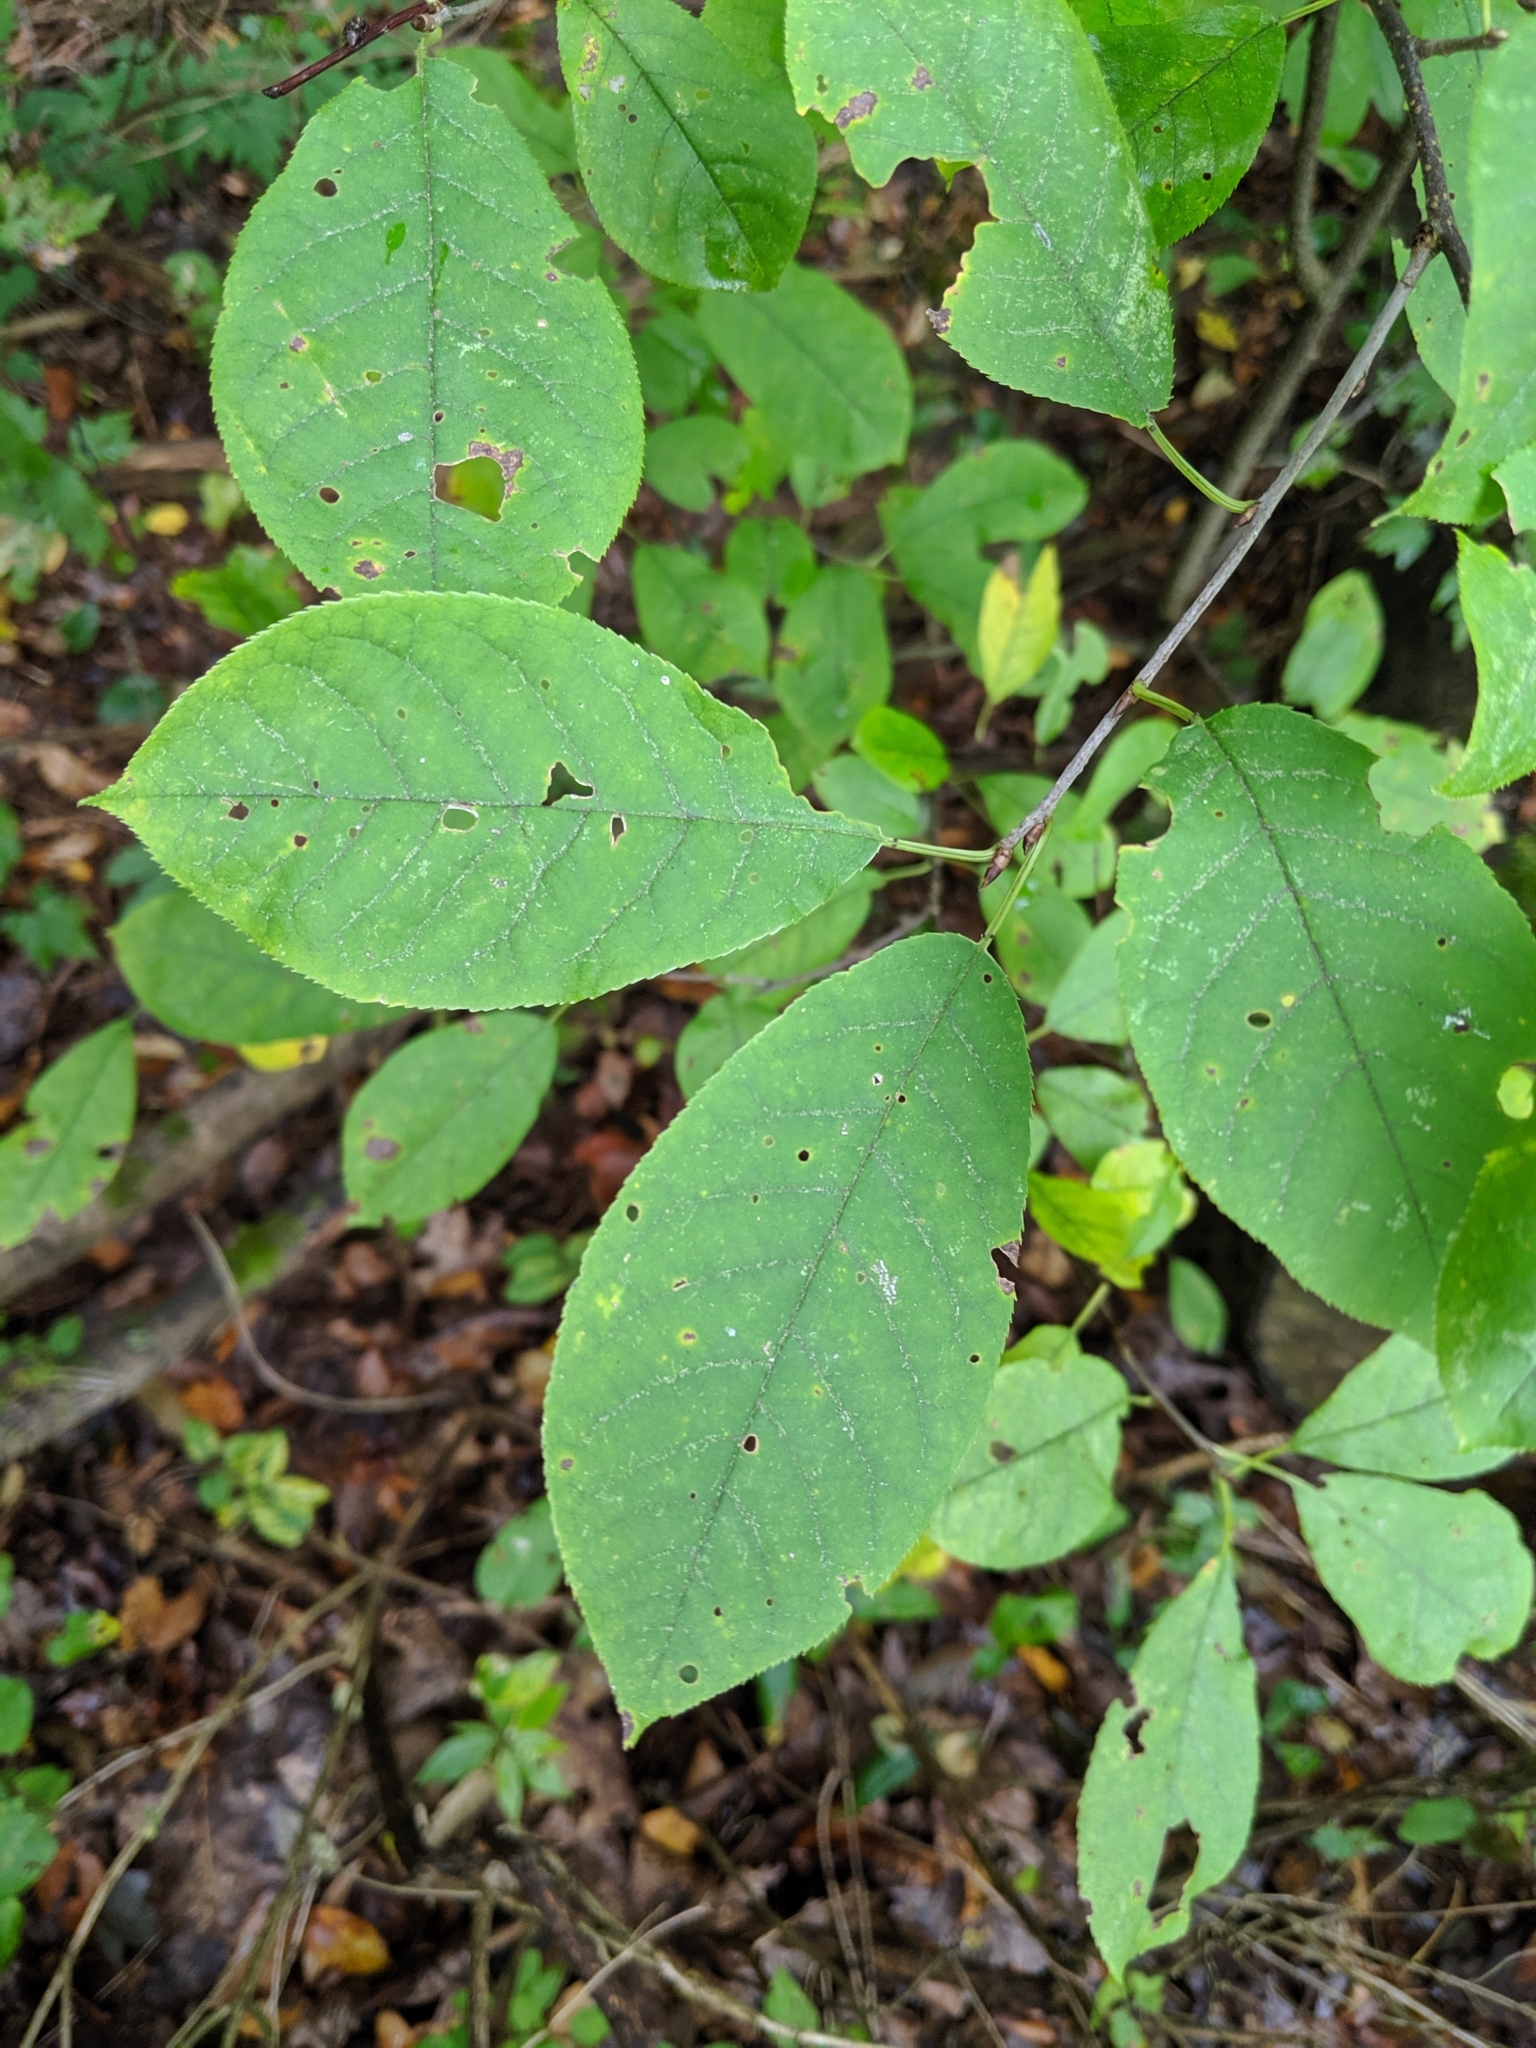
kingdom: Plantae
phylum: Tracheophyta
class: Magnoliopsida
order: Rosales
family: Rosaceae
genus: Prunus
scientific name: Prunus virginiana
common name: Chokecherry
